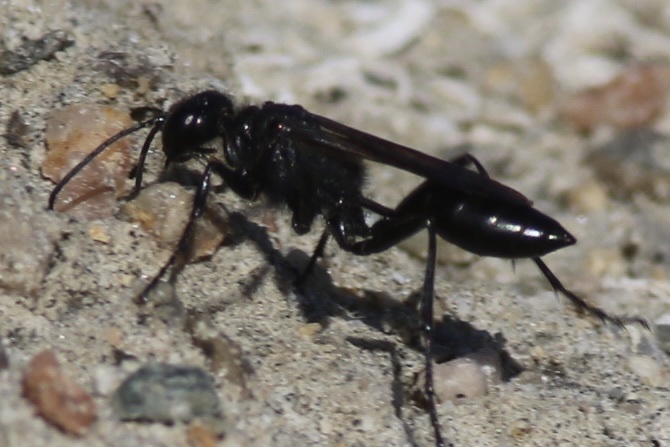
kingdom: Animalia
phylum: Arthropoda
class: Insecta
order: Hymenoptera
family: Sphecidae
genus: Podalonia
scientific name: Podalonia
